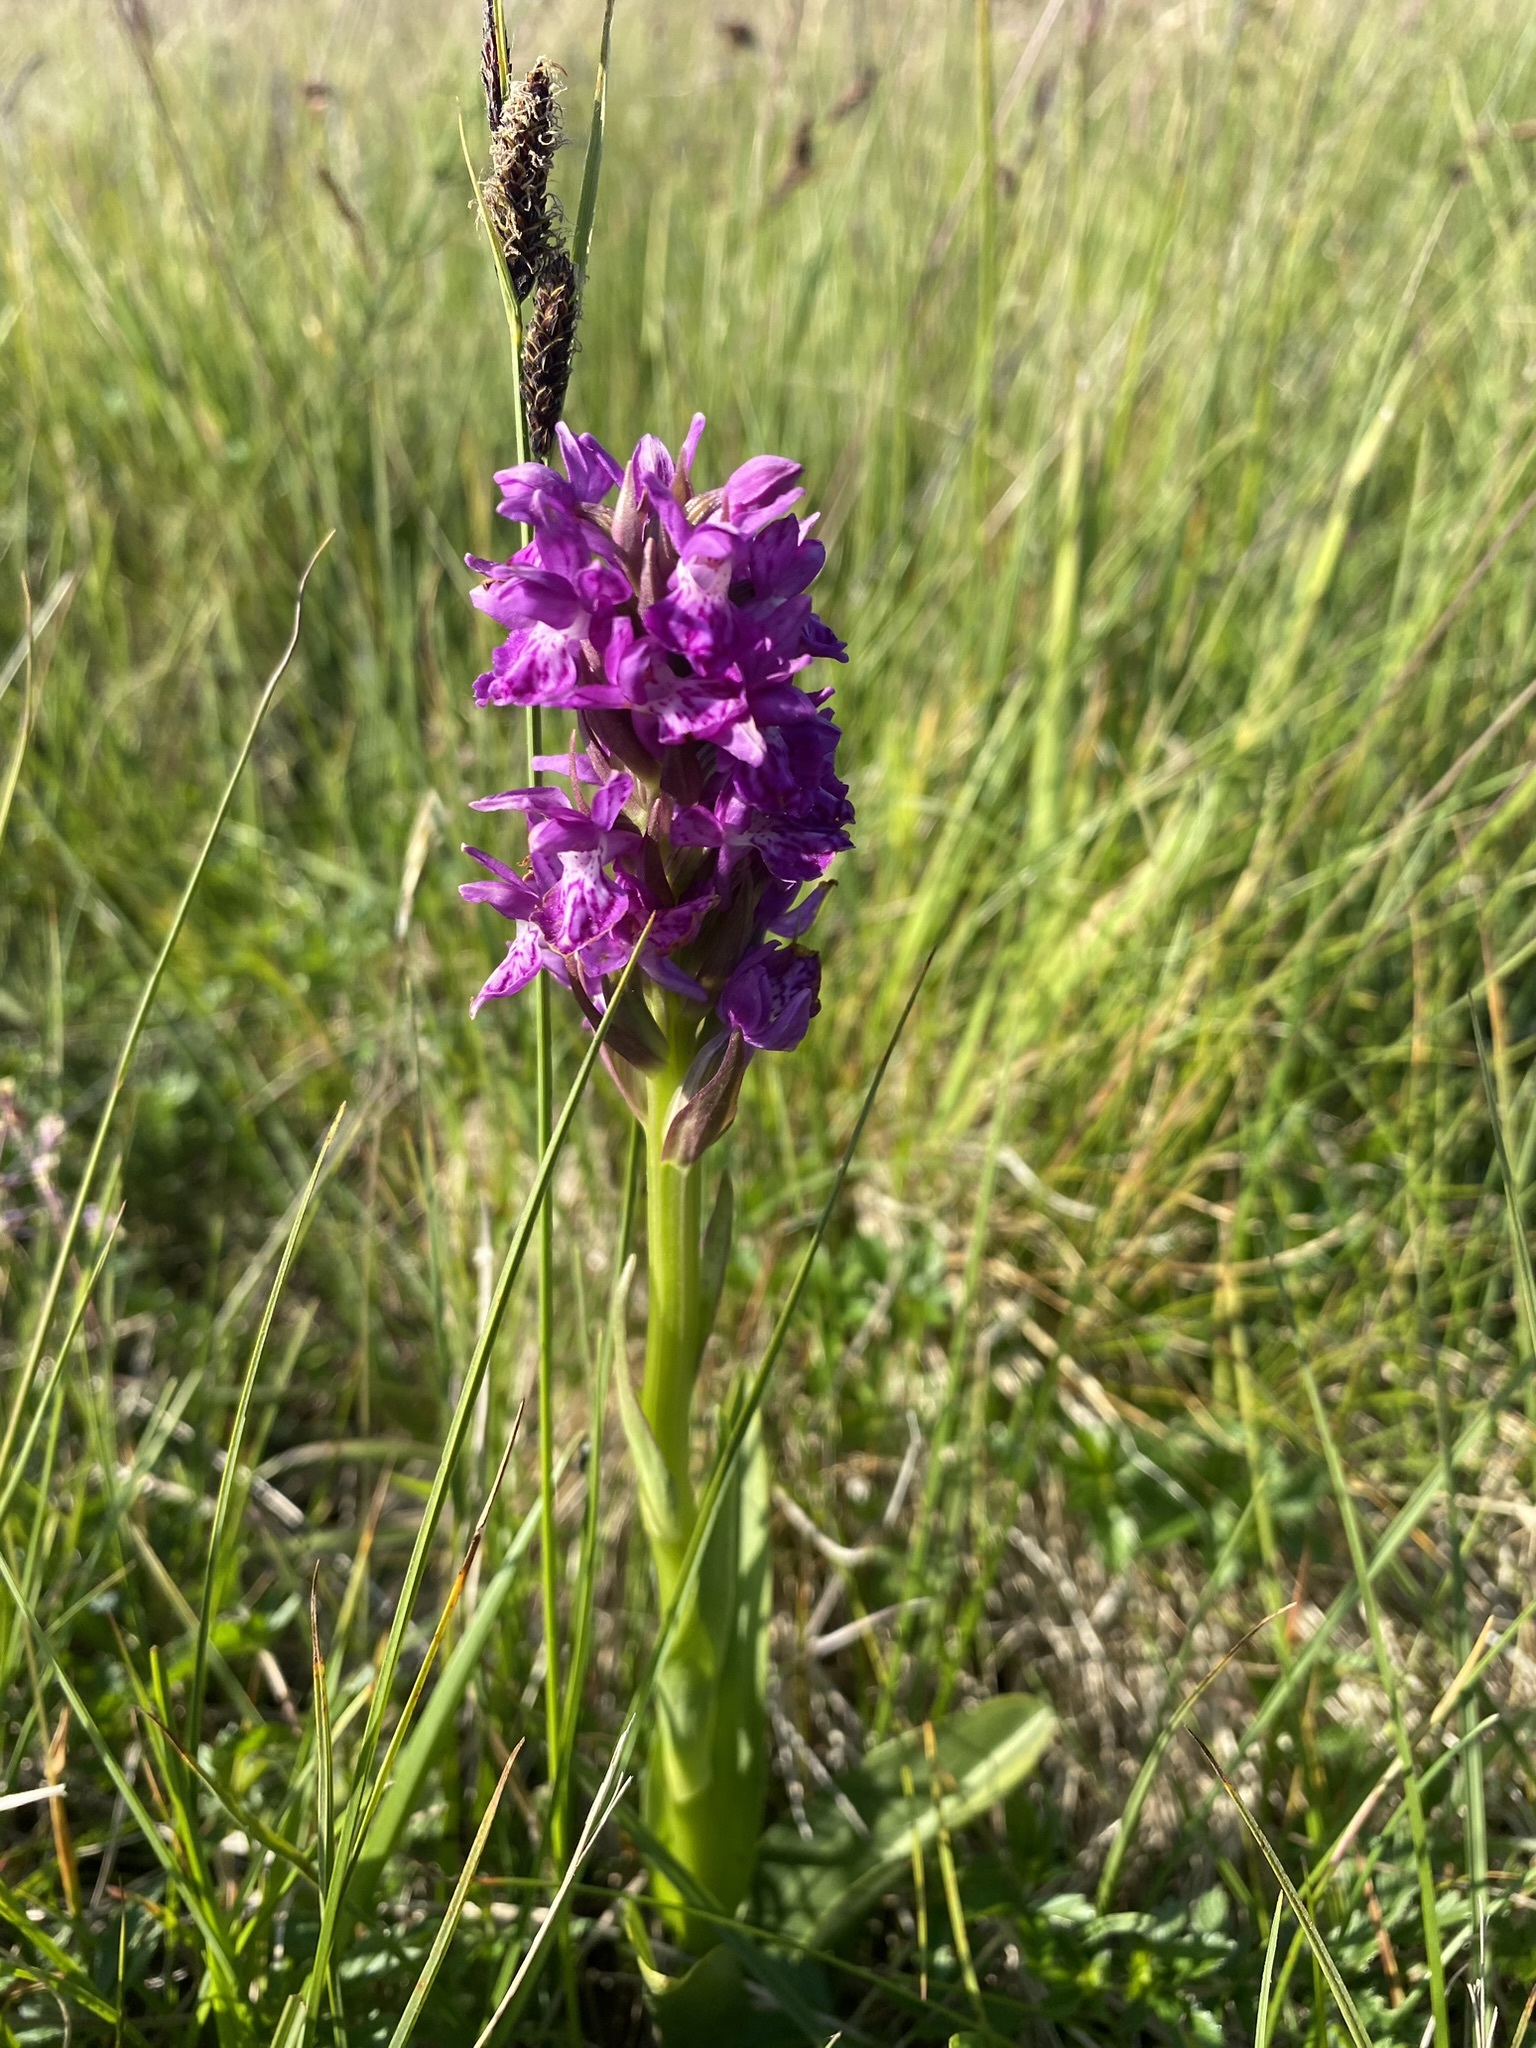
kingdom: Plantae
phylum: Tracheophyta
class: Liliopsida
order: Asparagales
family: Orchidaceae
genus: Dactylorhiza
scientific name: Dactylorhiza majalis
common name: Marsh orchid
